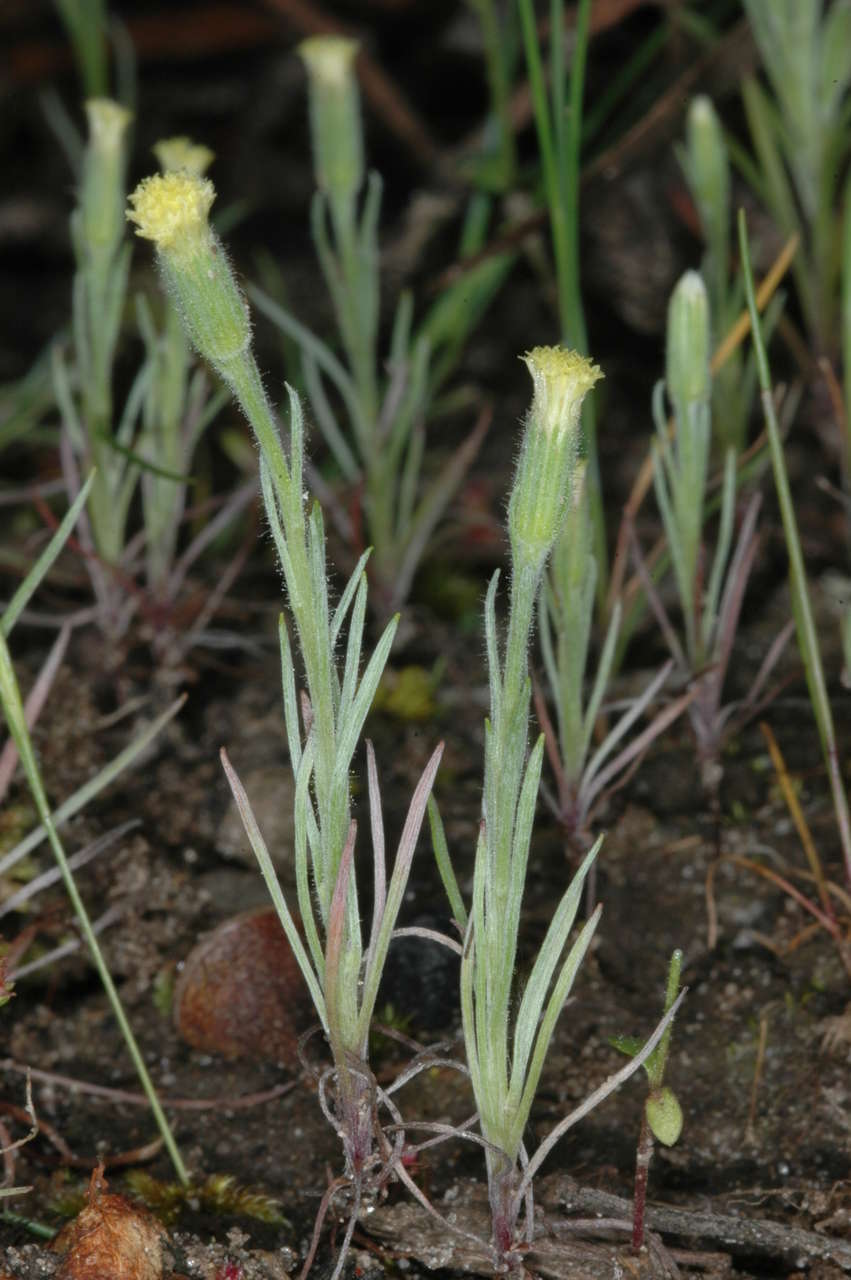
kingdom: Plantae
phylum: Tracheophyta
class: Magnoliopsida
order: Asterales
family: Asteraceae
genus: Millotia
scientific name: Millotia tenuifolia
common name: Soft millotia
